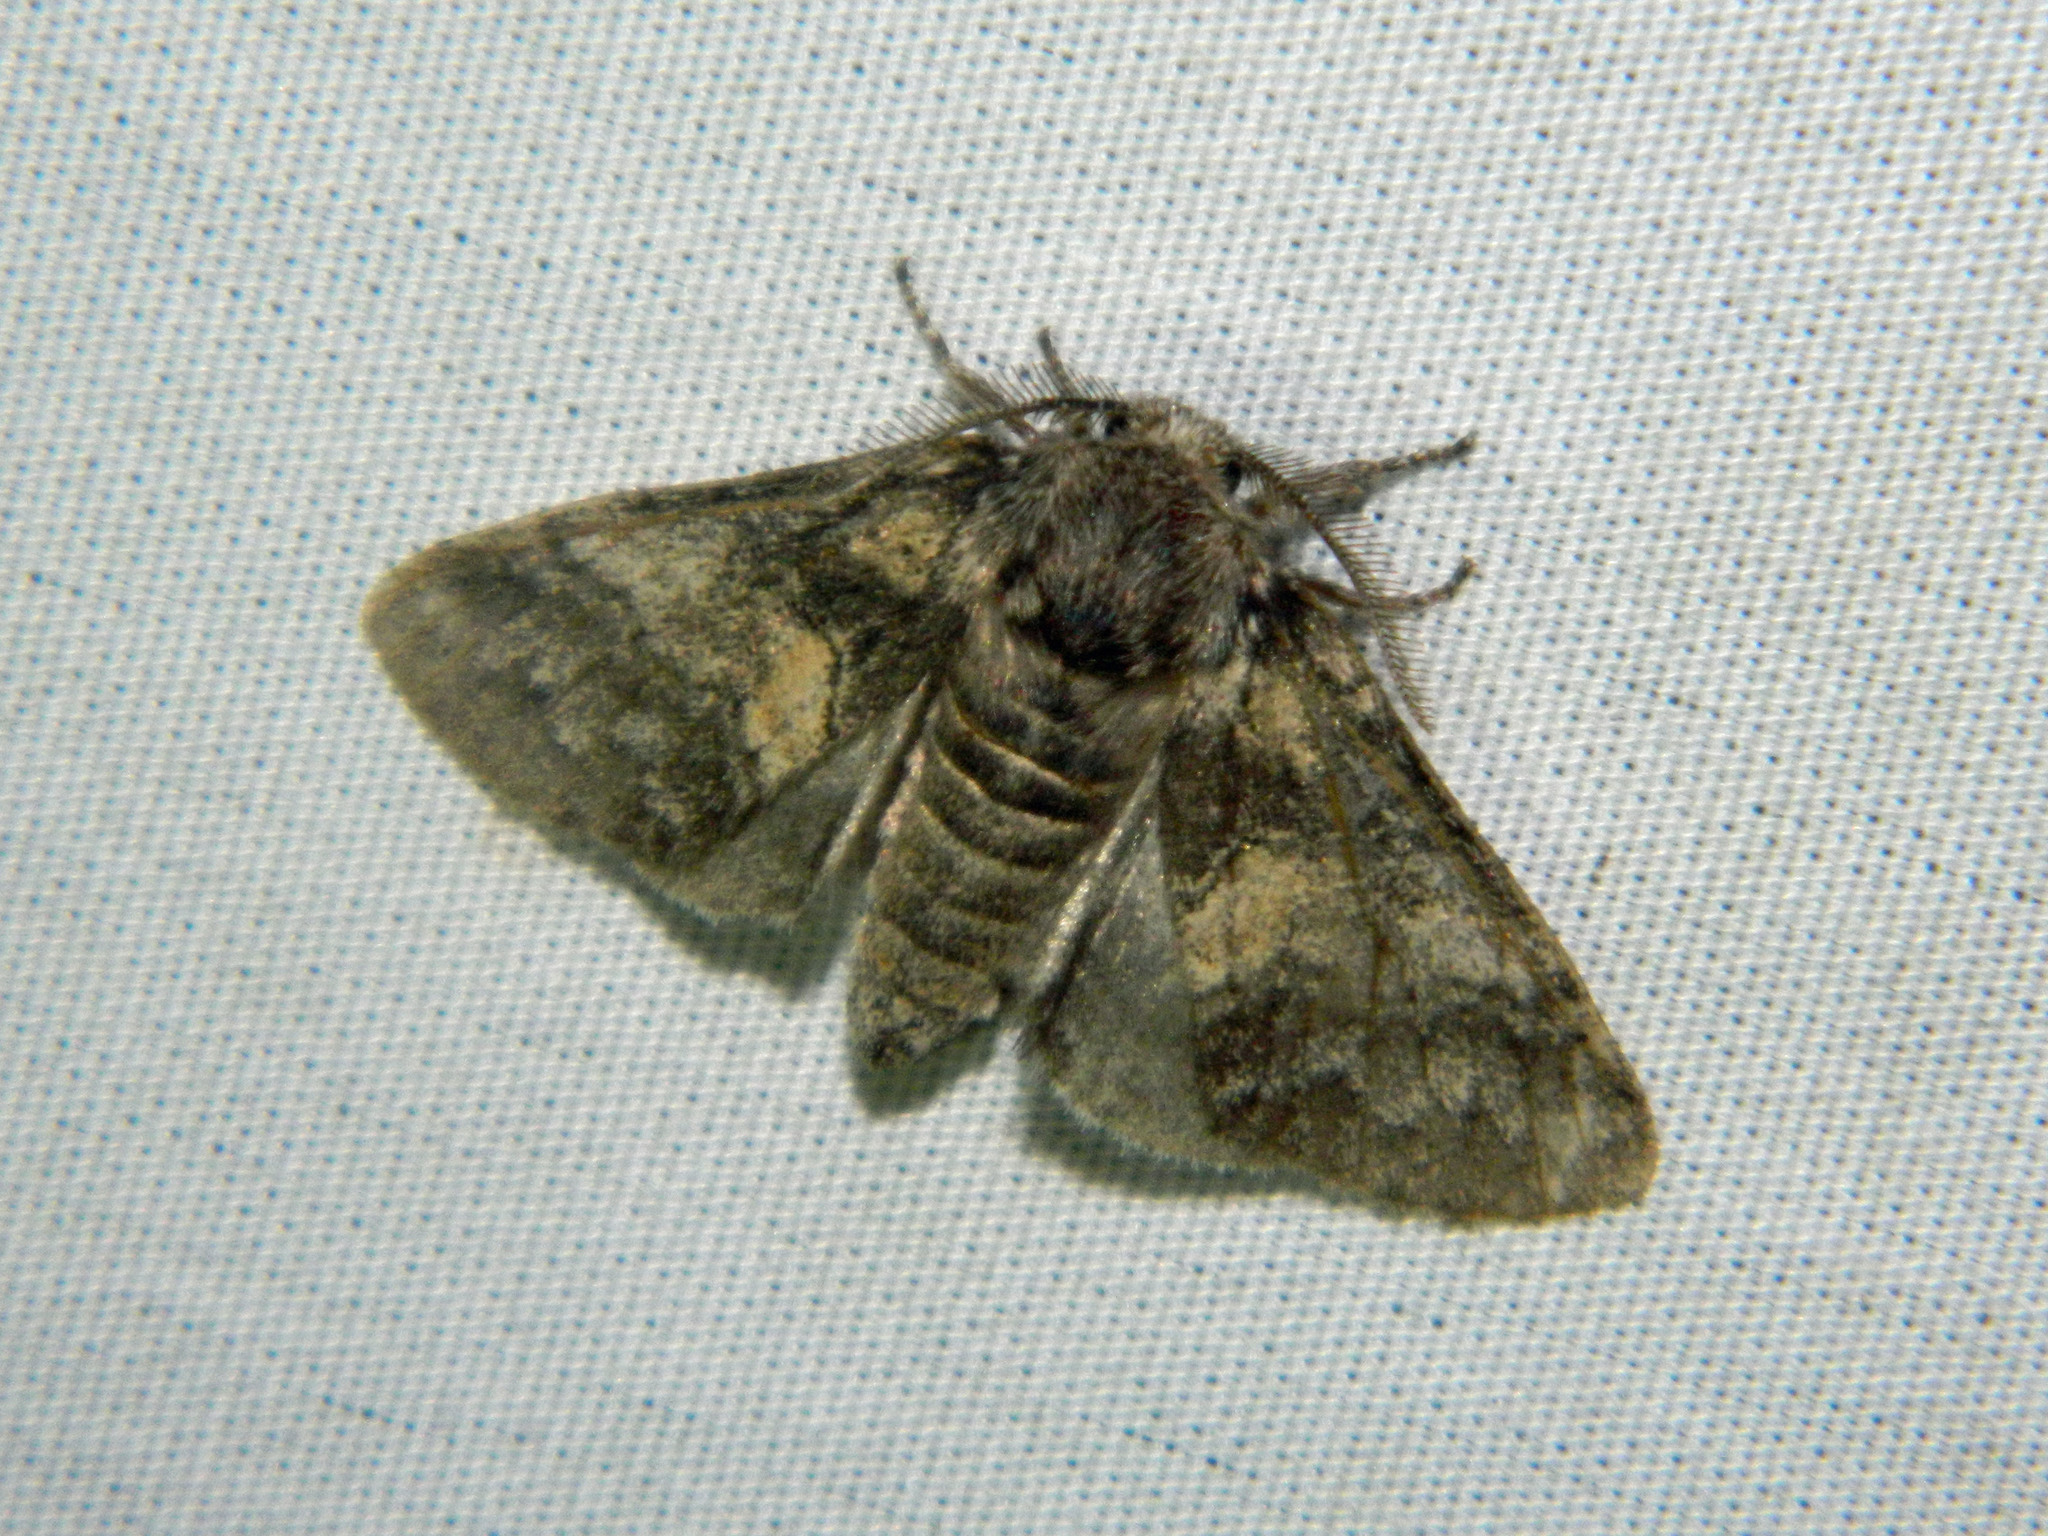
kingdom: Animalia
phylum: Arthropoda
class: Insecta
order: Lepidoptera
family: Notodontidae
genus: Gluphisia
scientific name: Gluphisia septentrionis
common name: Common gluphisia
